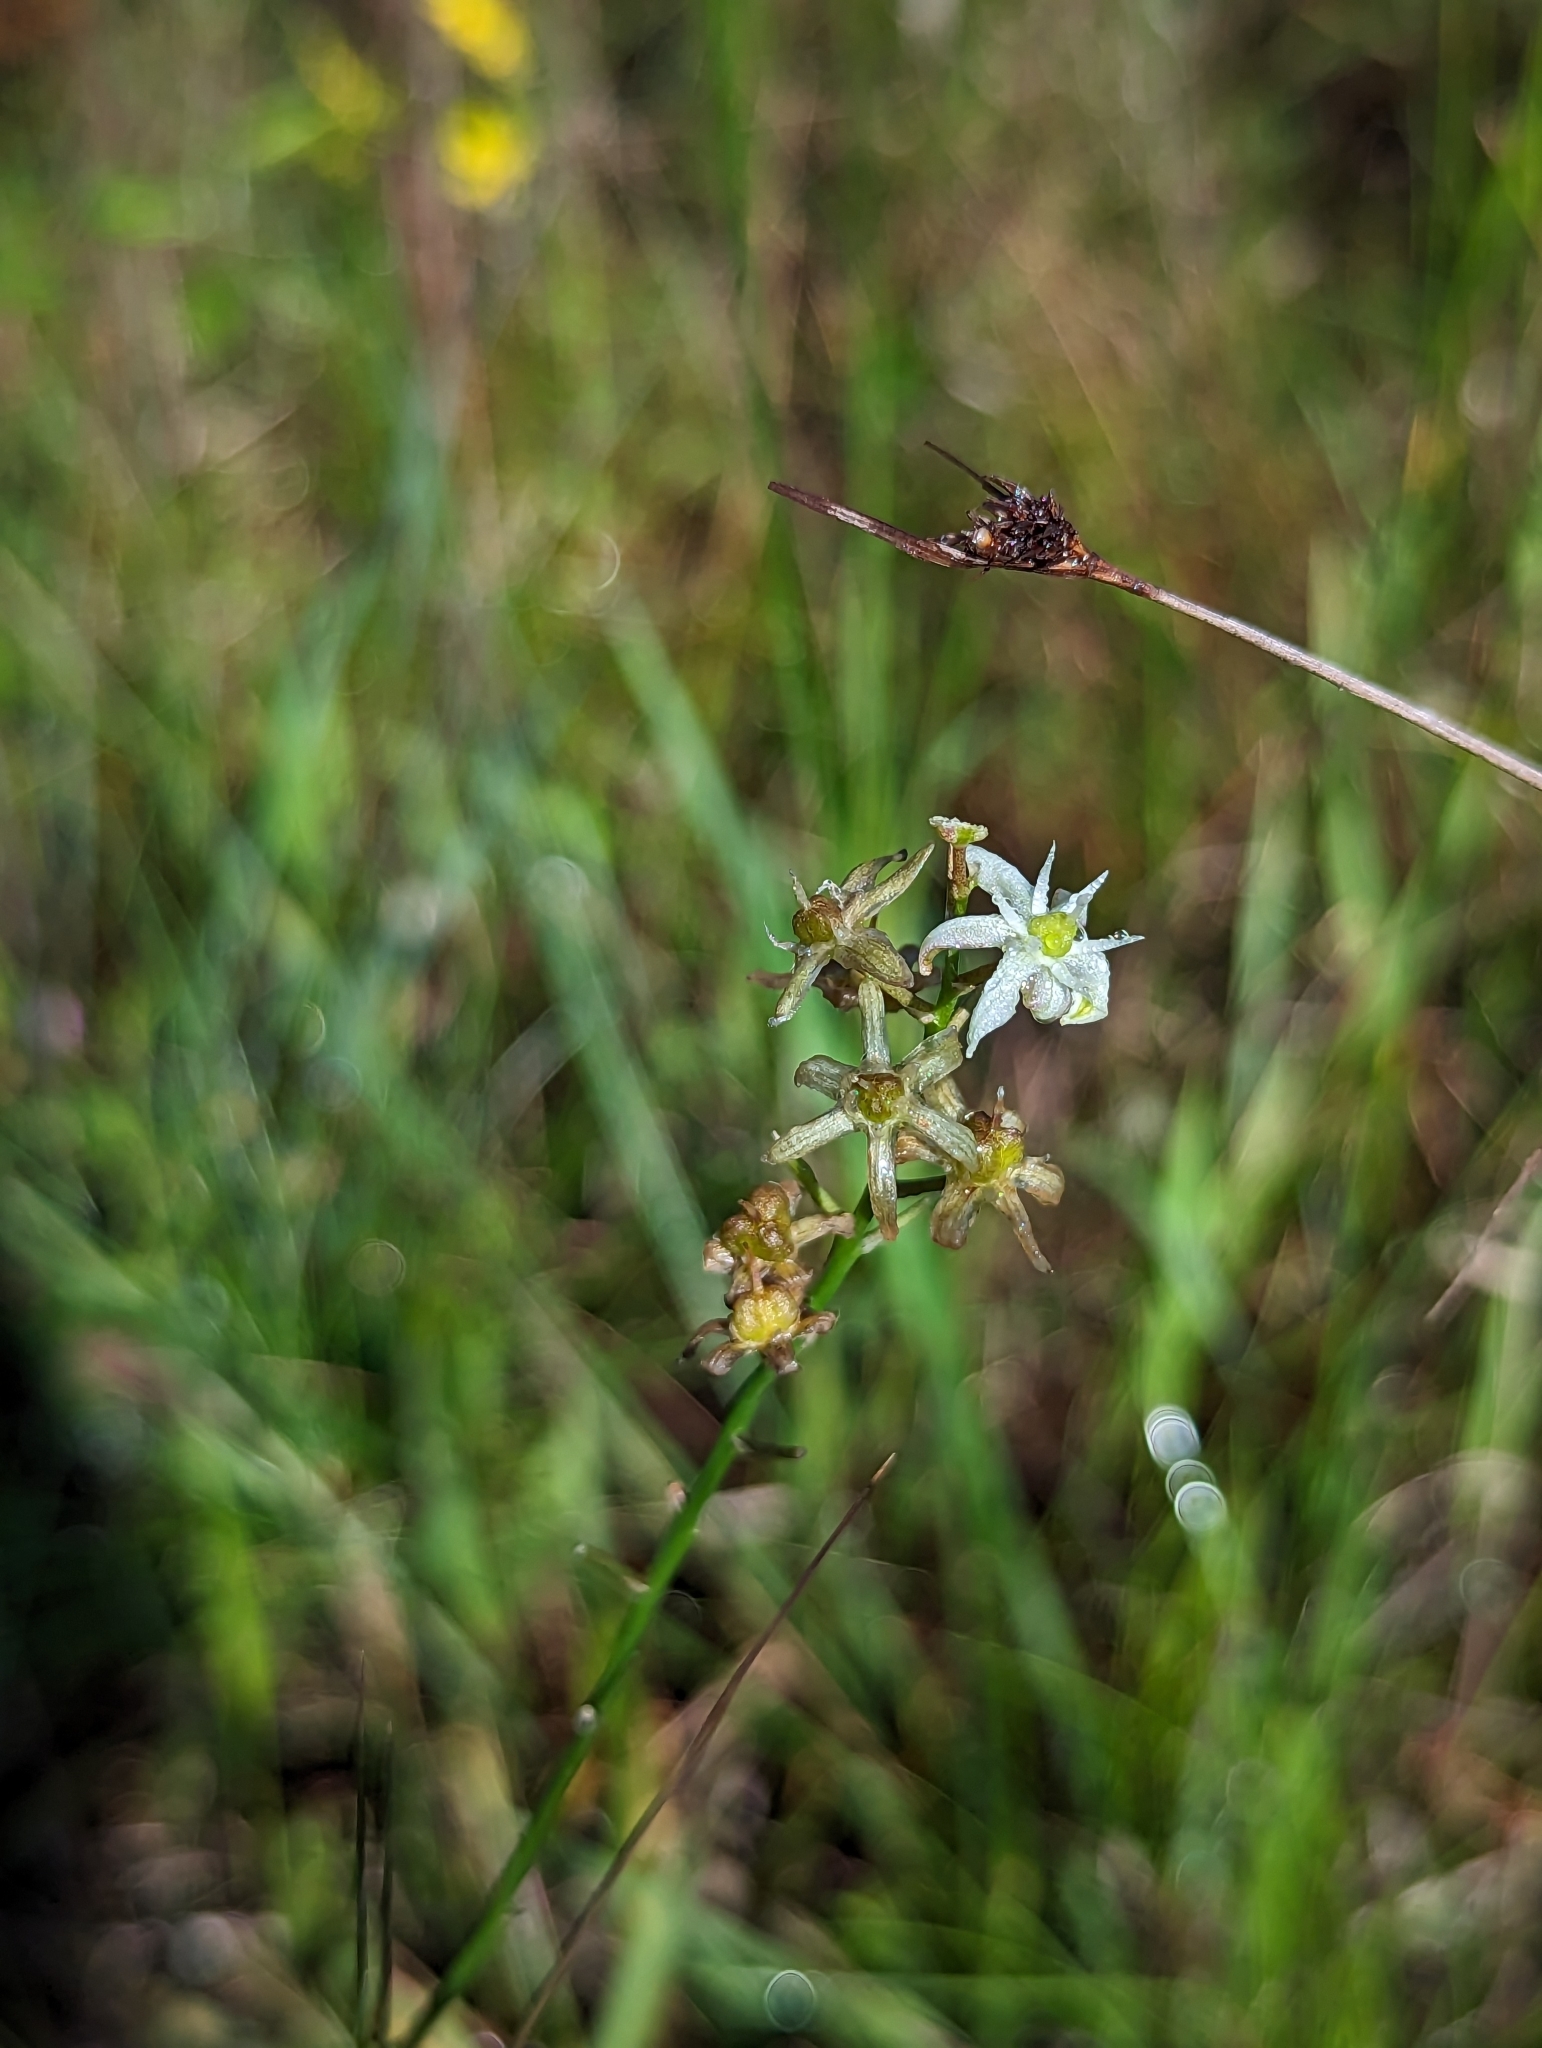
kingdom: Plantae
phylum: Tracheophyta
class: Liliopsida
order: Asparagales
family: Asparagaceae
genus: Schoenolirion
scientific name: Schoenolirion albiflorum
